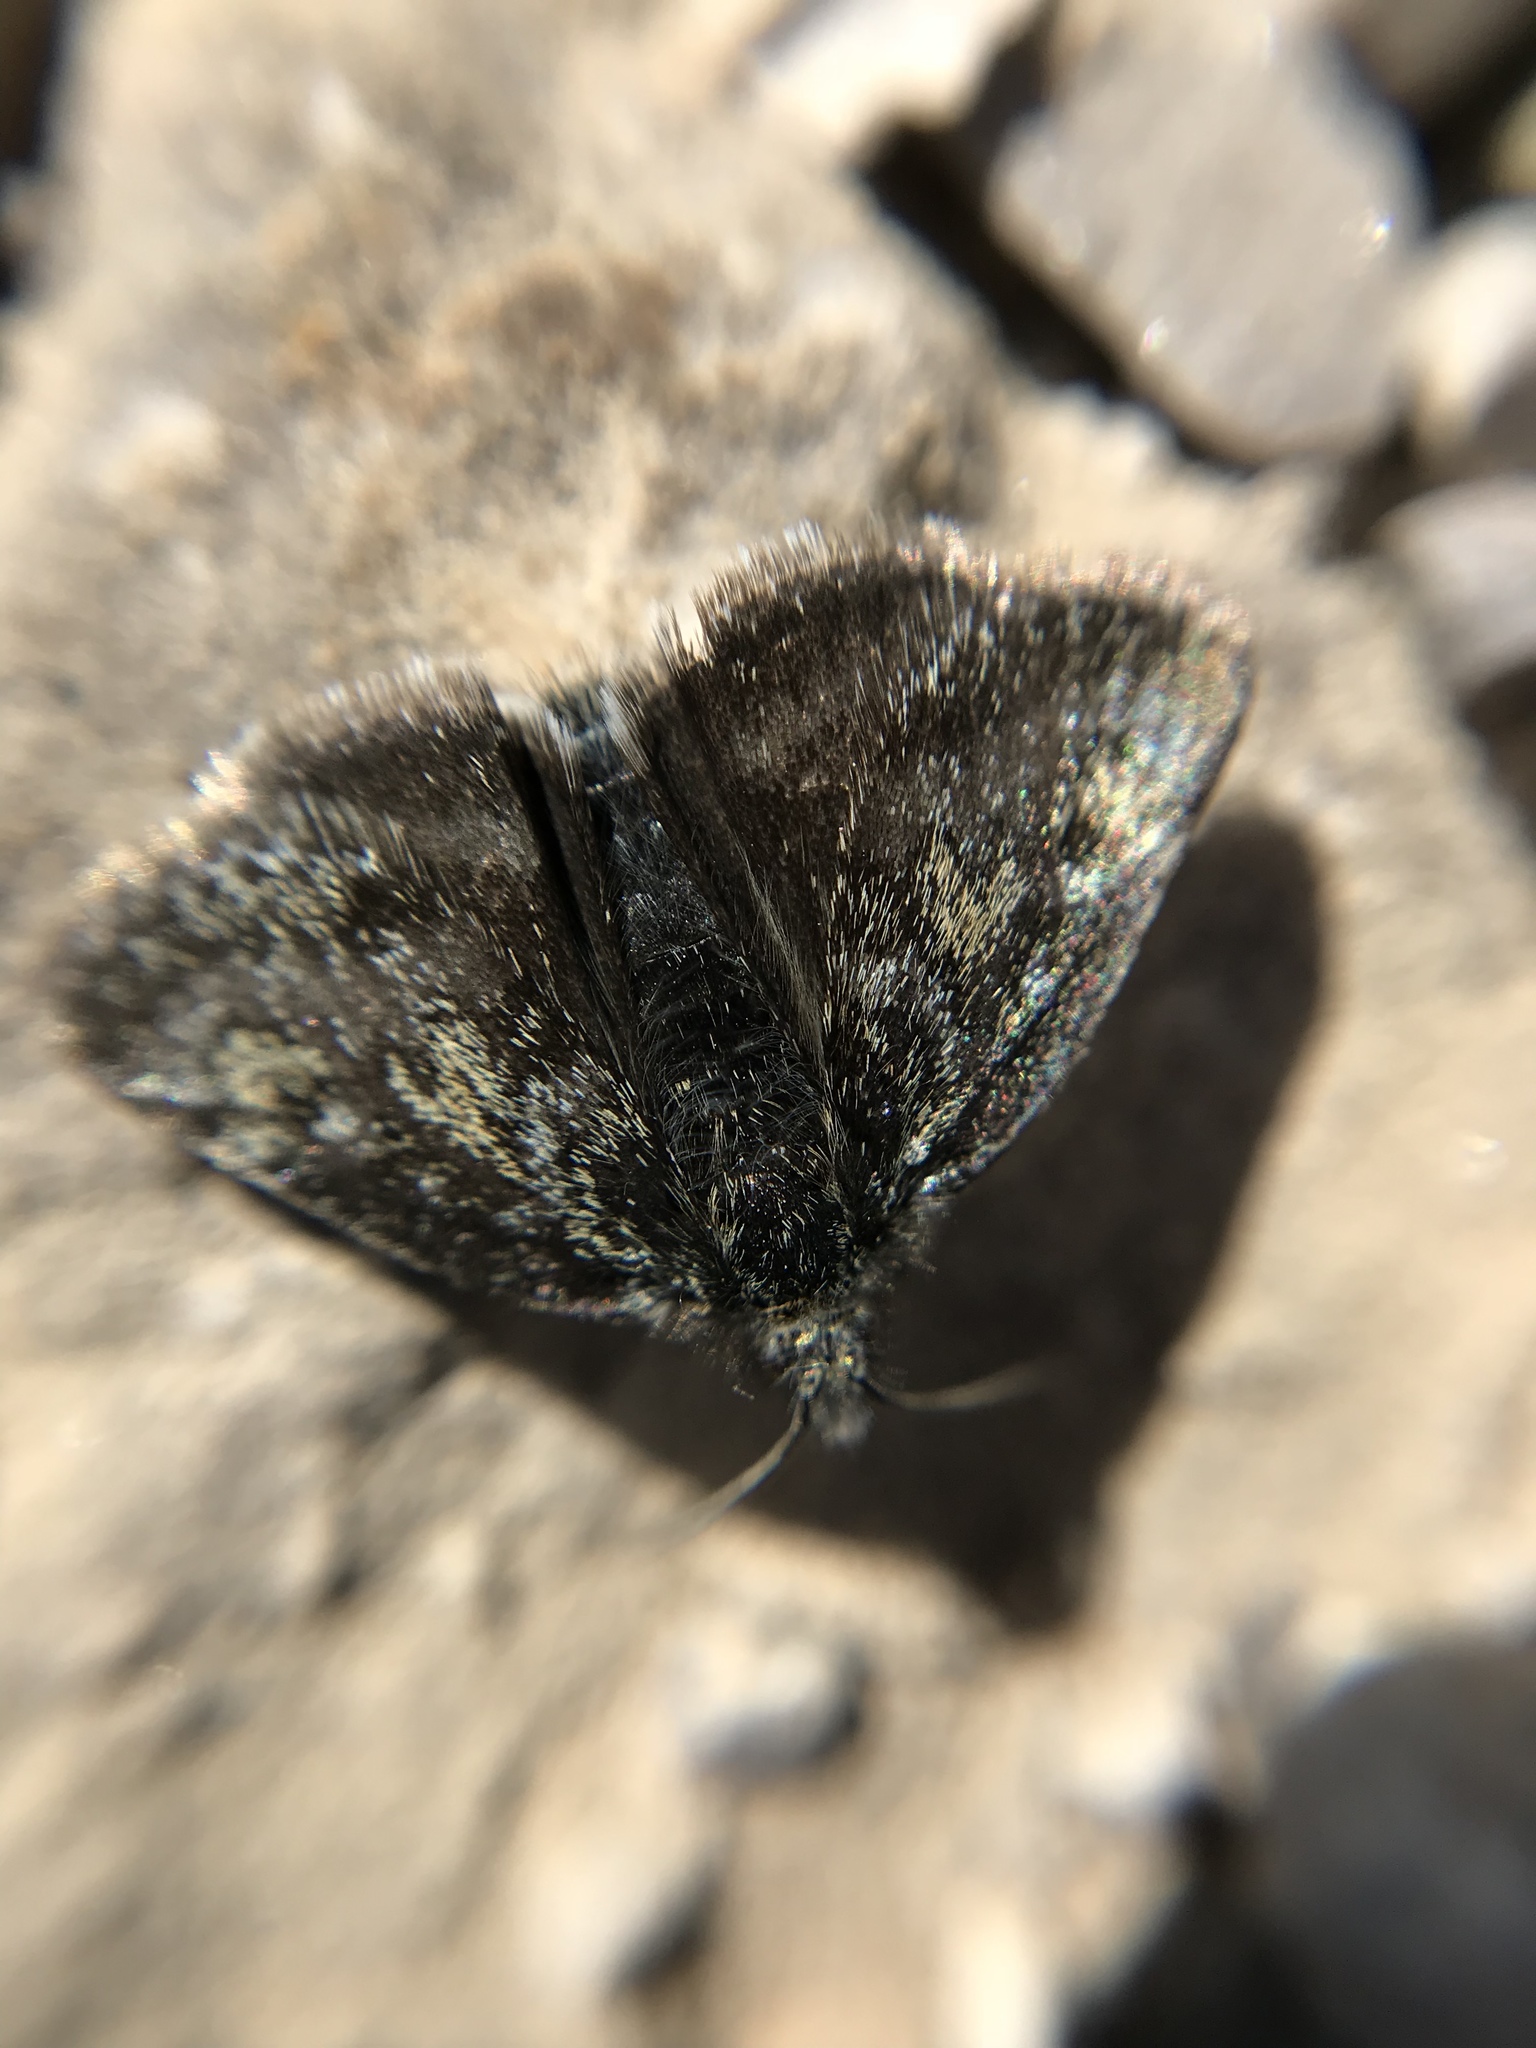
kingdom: Animalia
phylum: Arthropoda
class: Insecta
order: Lepidoptera
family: Crambidae
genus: Heliothela
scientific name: Heliothela wulfeniana
